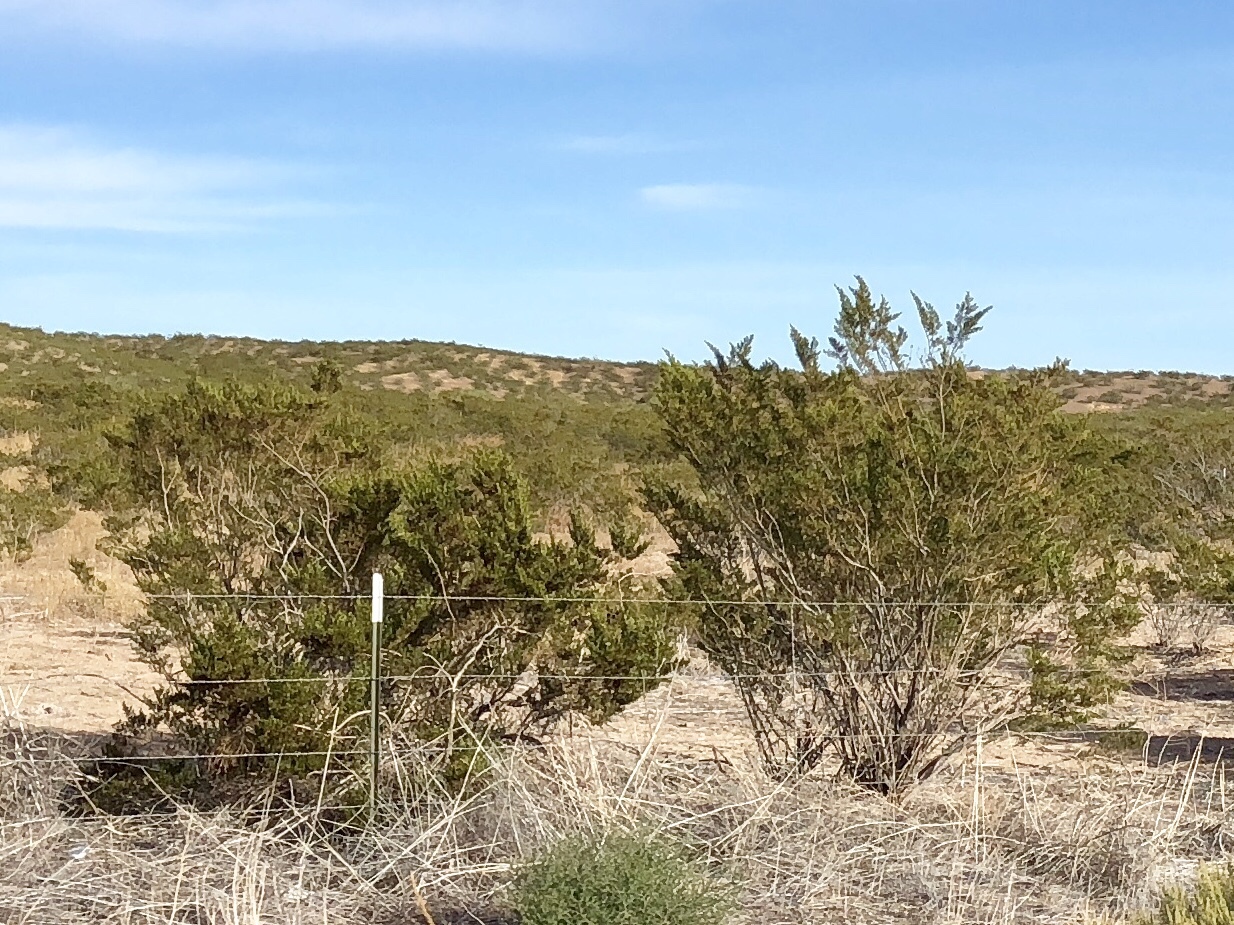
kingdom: Plantae
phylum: Tracheophyta
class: Magnoliopsida
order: Zygophyllales
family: Zygophyllaceae
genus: Larrea
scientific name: Larrea tridentata
